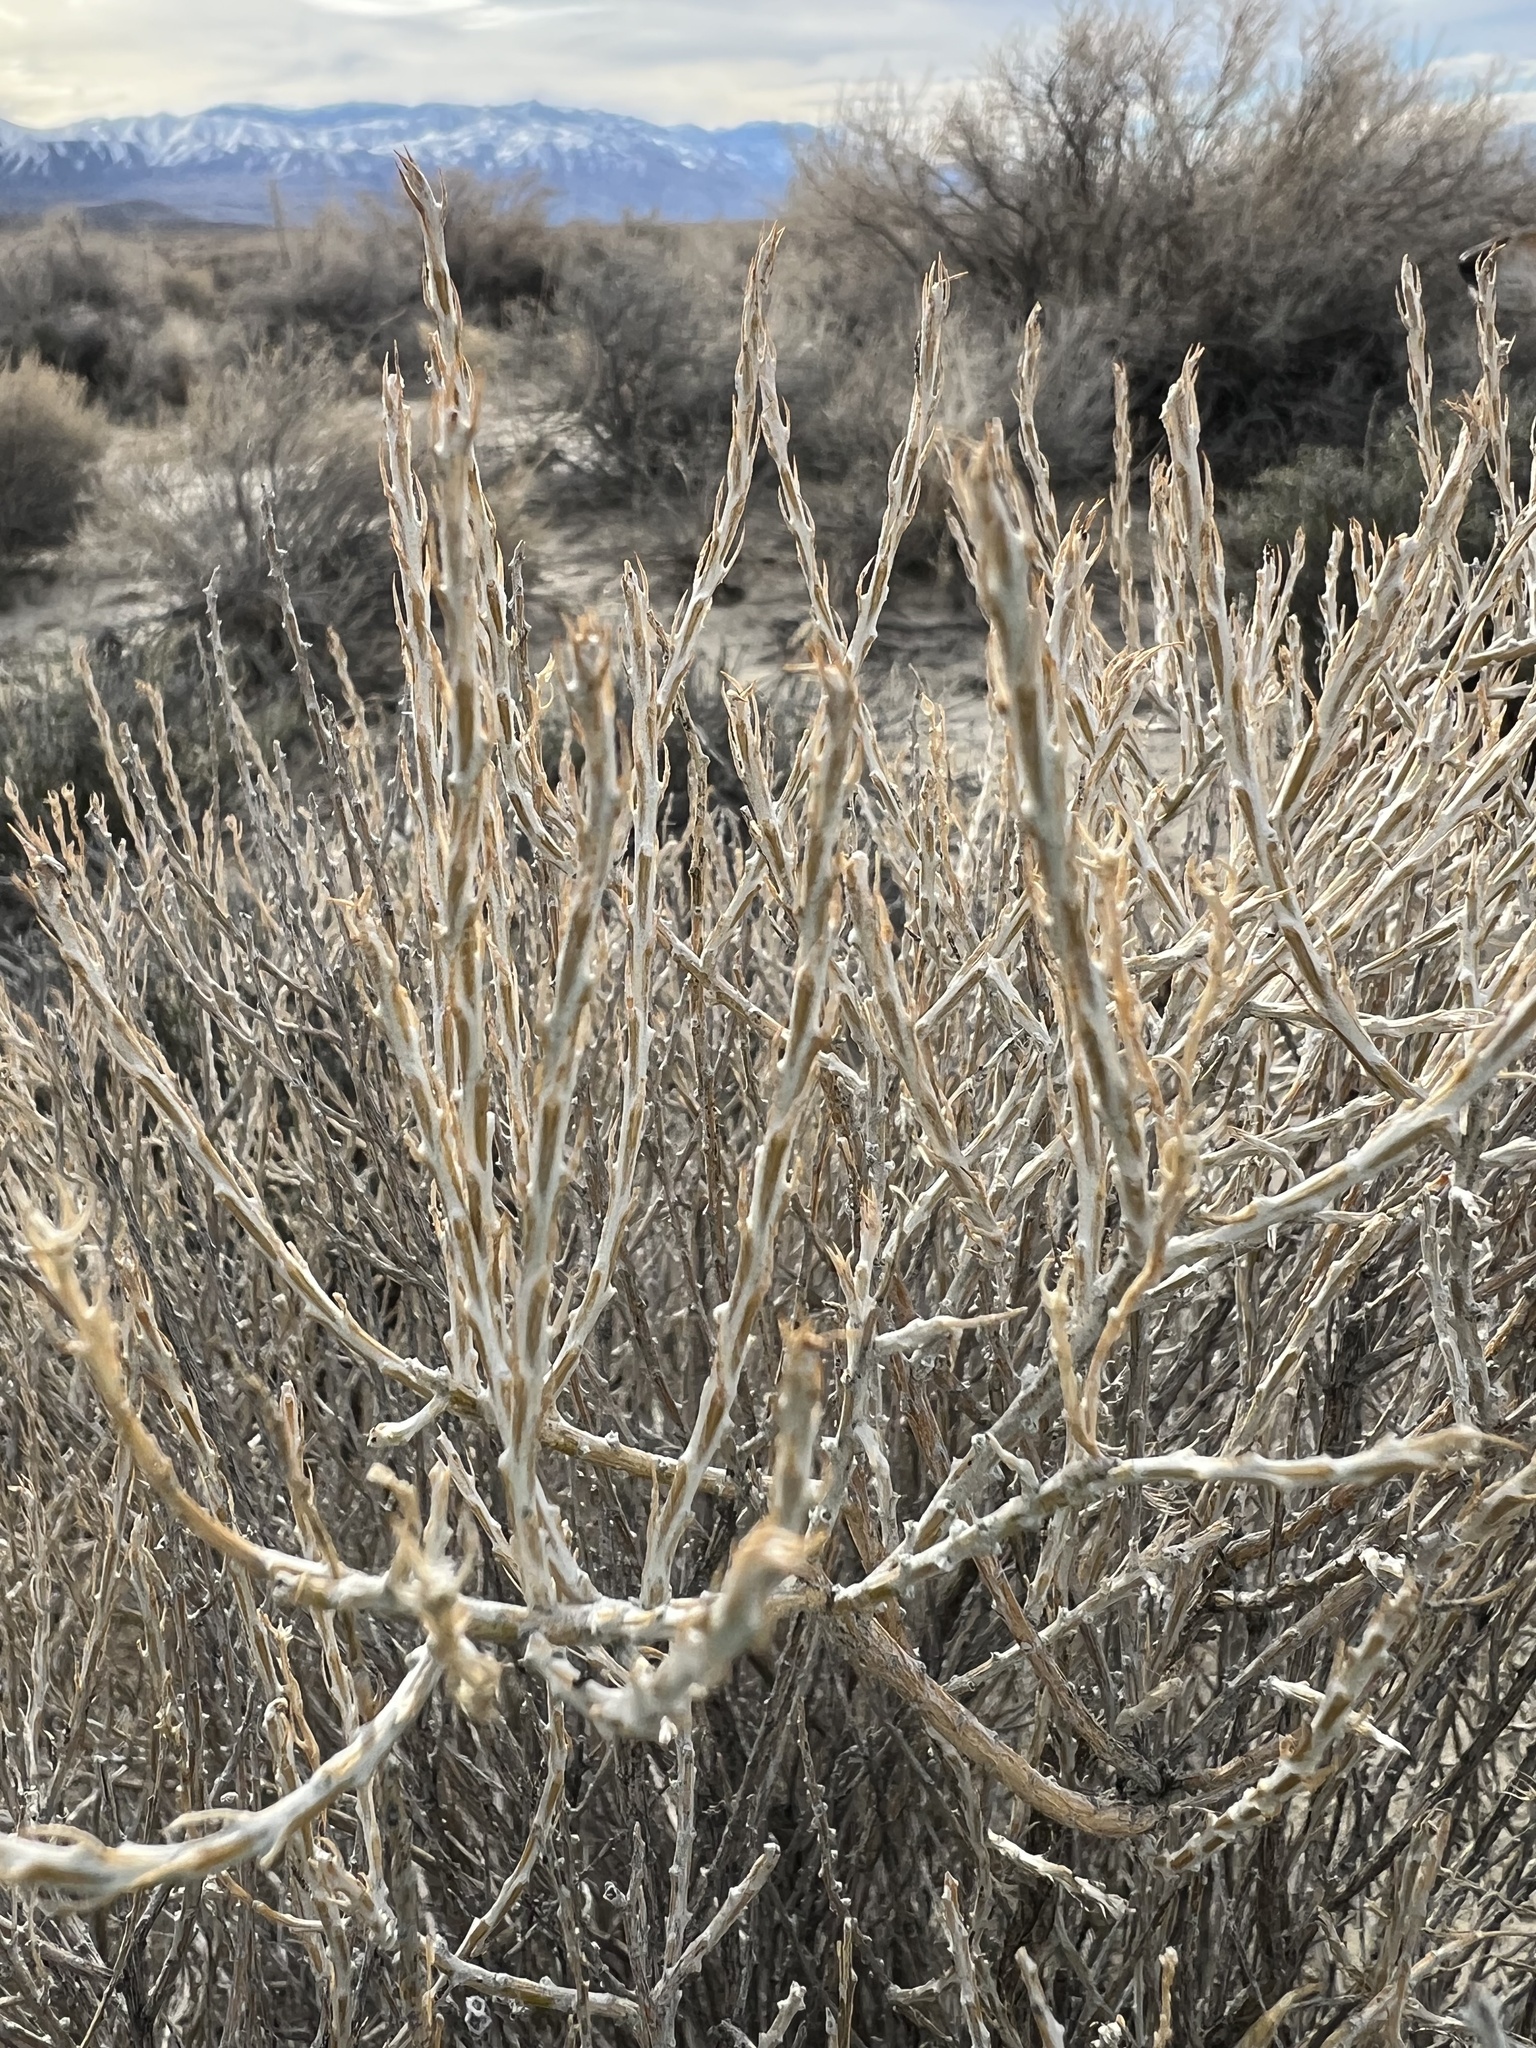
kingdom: Plantae
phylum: Tracheophyta
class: Magnoliopsida
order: Asterales
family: Asteraceae
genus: Tetradymia
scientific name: Tetradymia glabrata
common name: Smooth tetradymia
